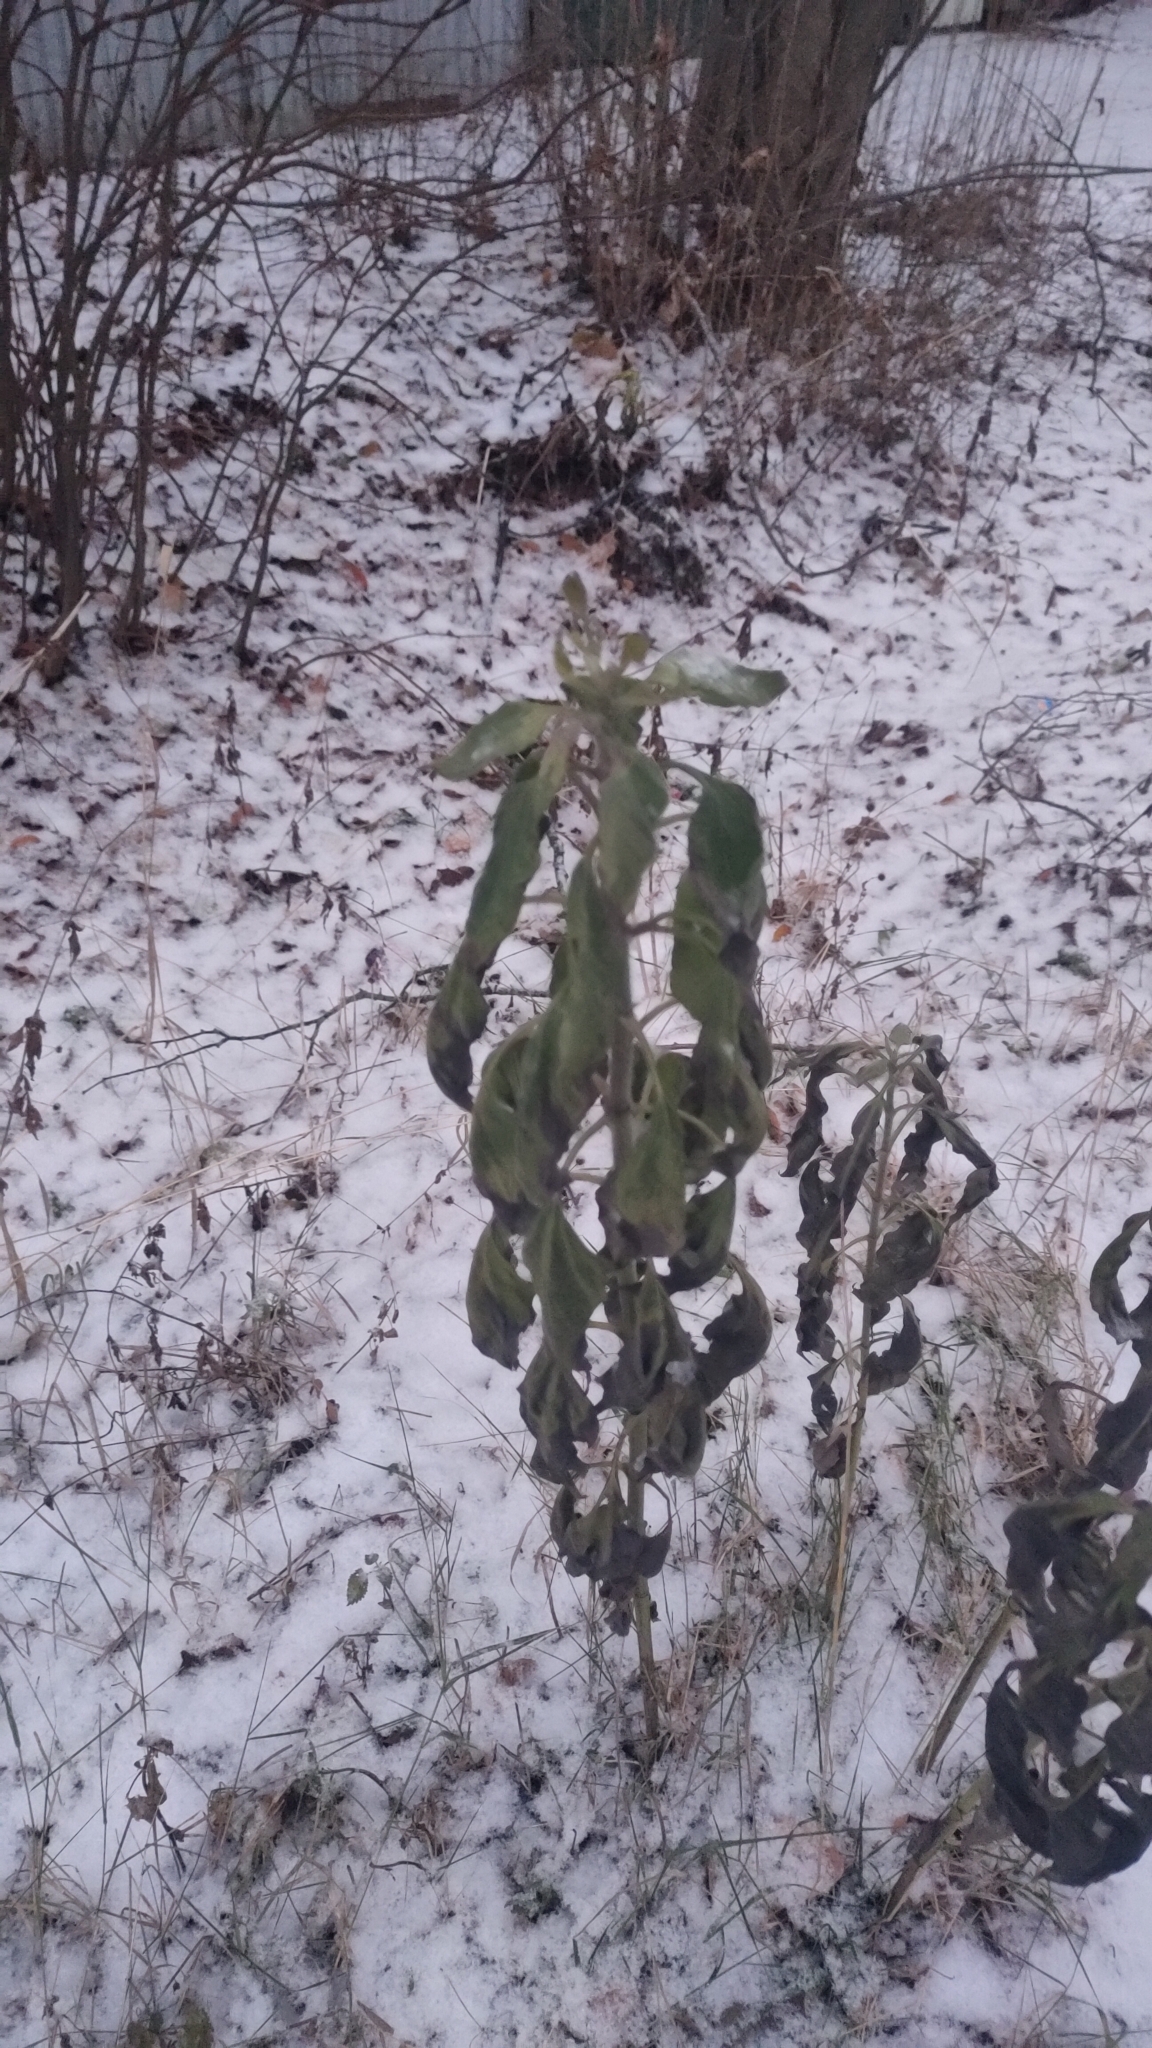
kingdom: Plantae
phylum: Tracheophyta
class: Magnoliopsida
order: Caryophyllales
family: Amaranthaceae
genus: Amaranthus
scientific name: Amaranthus retroflexus
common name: Redroot amaranth
